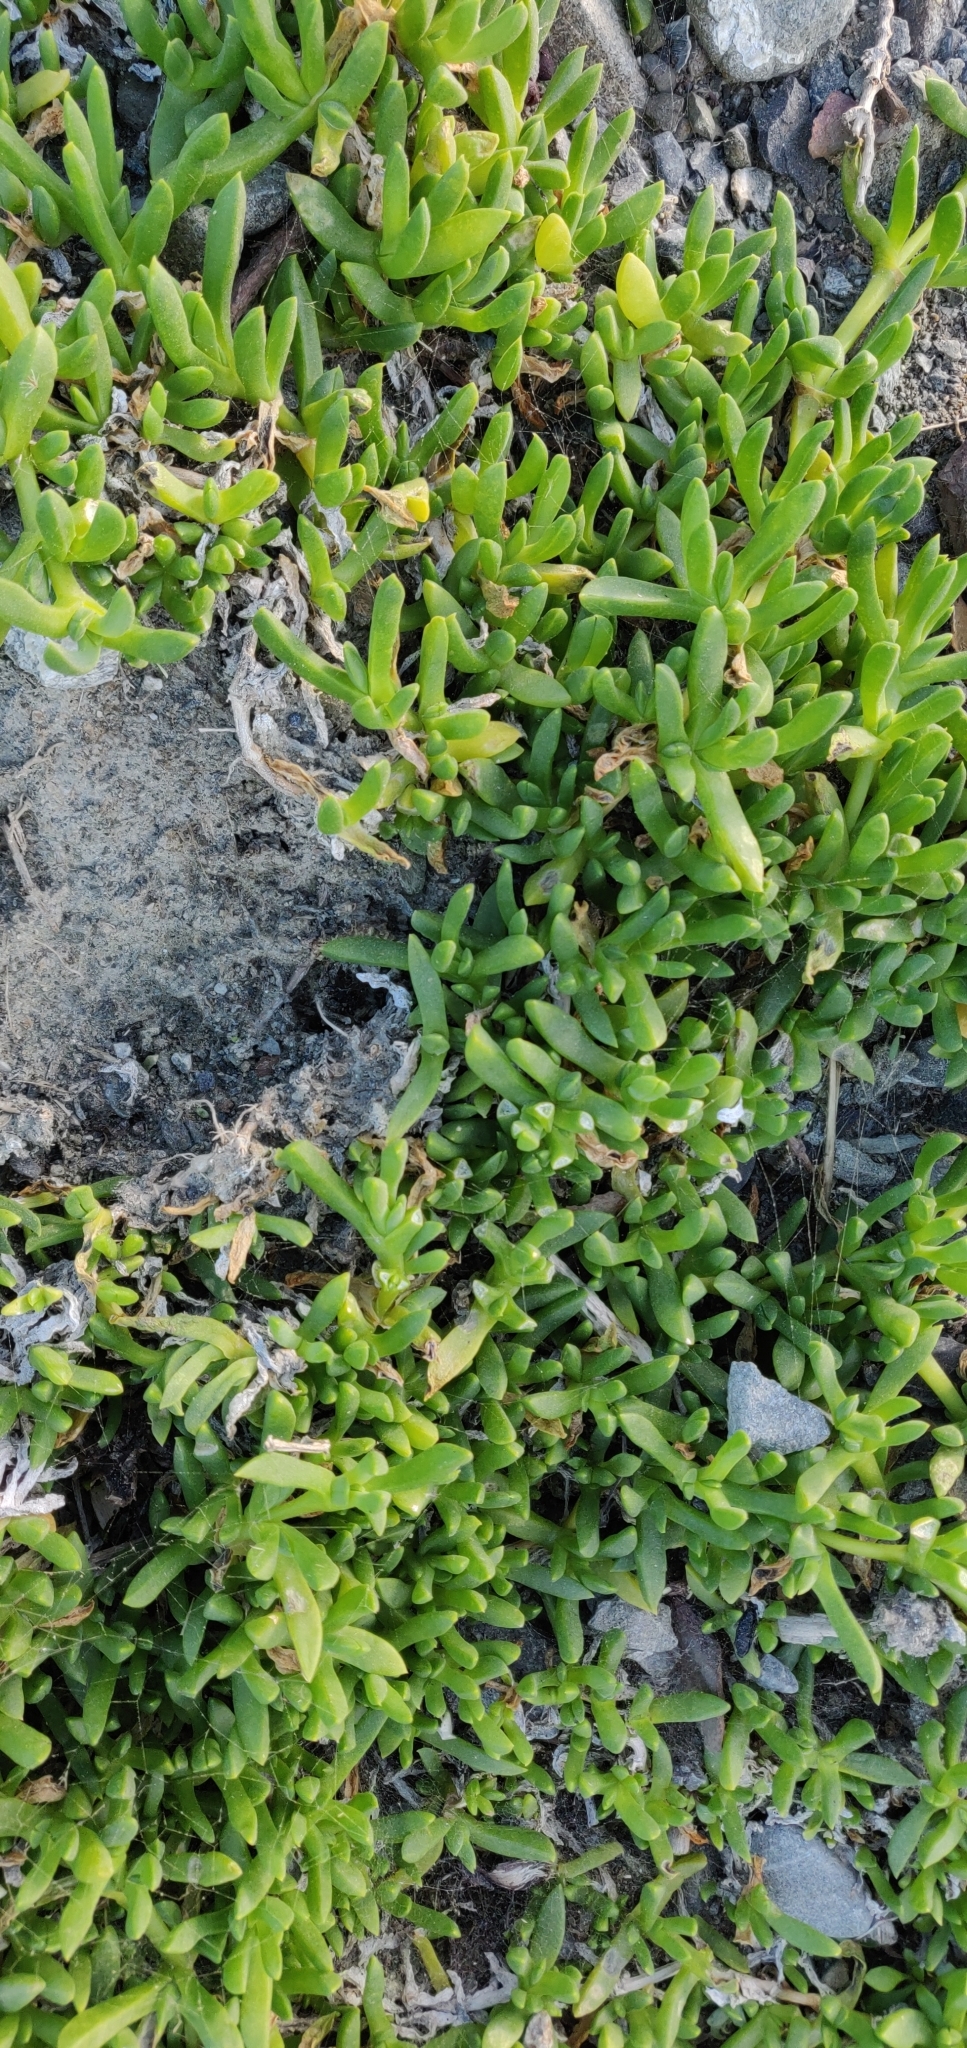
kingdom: Plantae
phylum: Tracheophyta
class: Magnoliopsida
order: Caryophyllales
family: Aizoaceae
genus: Disphyma
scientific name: Disphyma australe
